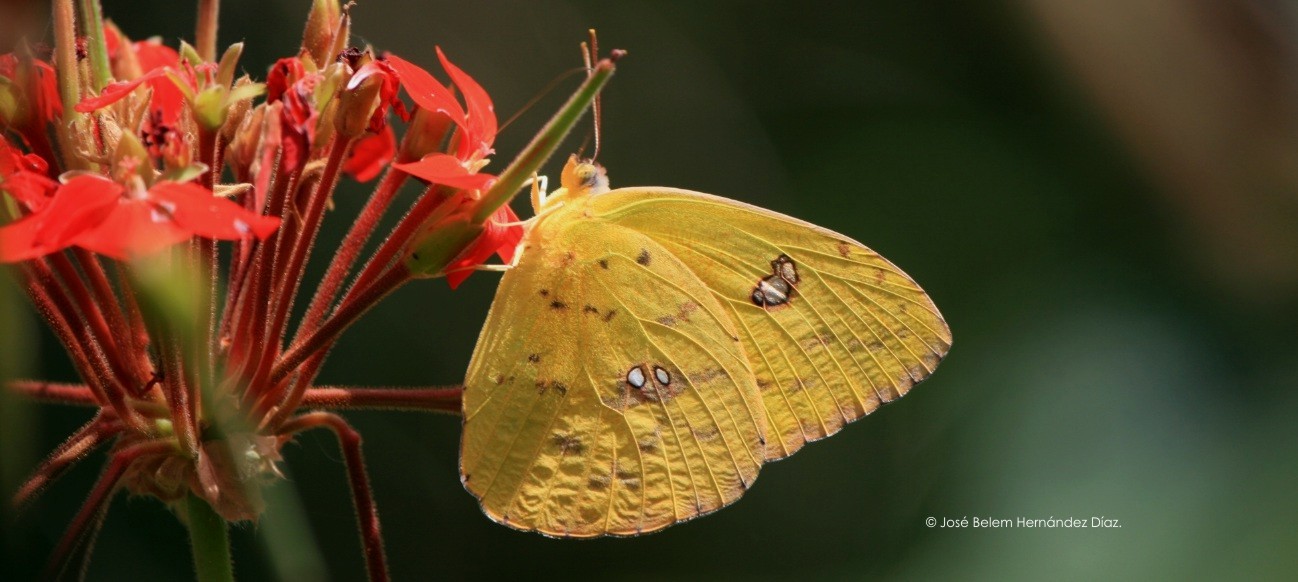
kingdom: Animalia
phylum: Arthropoda
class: Insecta
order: Lepidoptera
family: Pieridae
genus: Phoebis
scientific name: Phoebis sennae
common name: Cloudless sulphur
